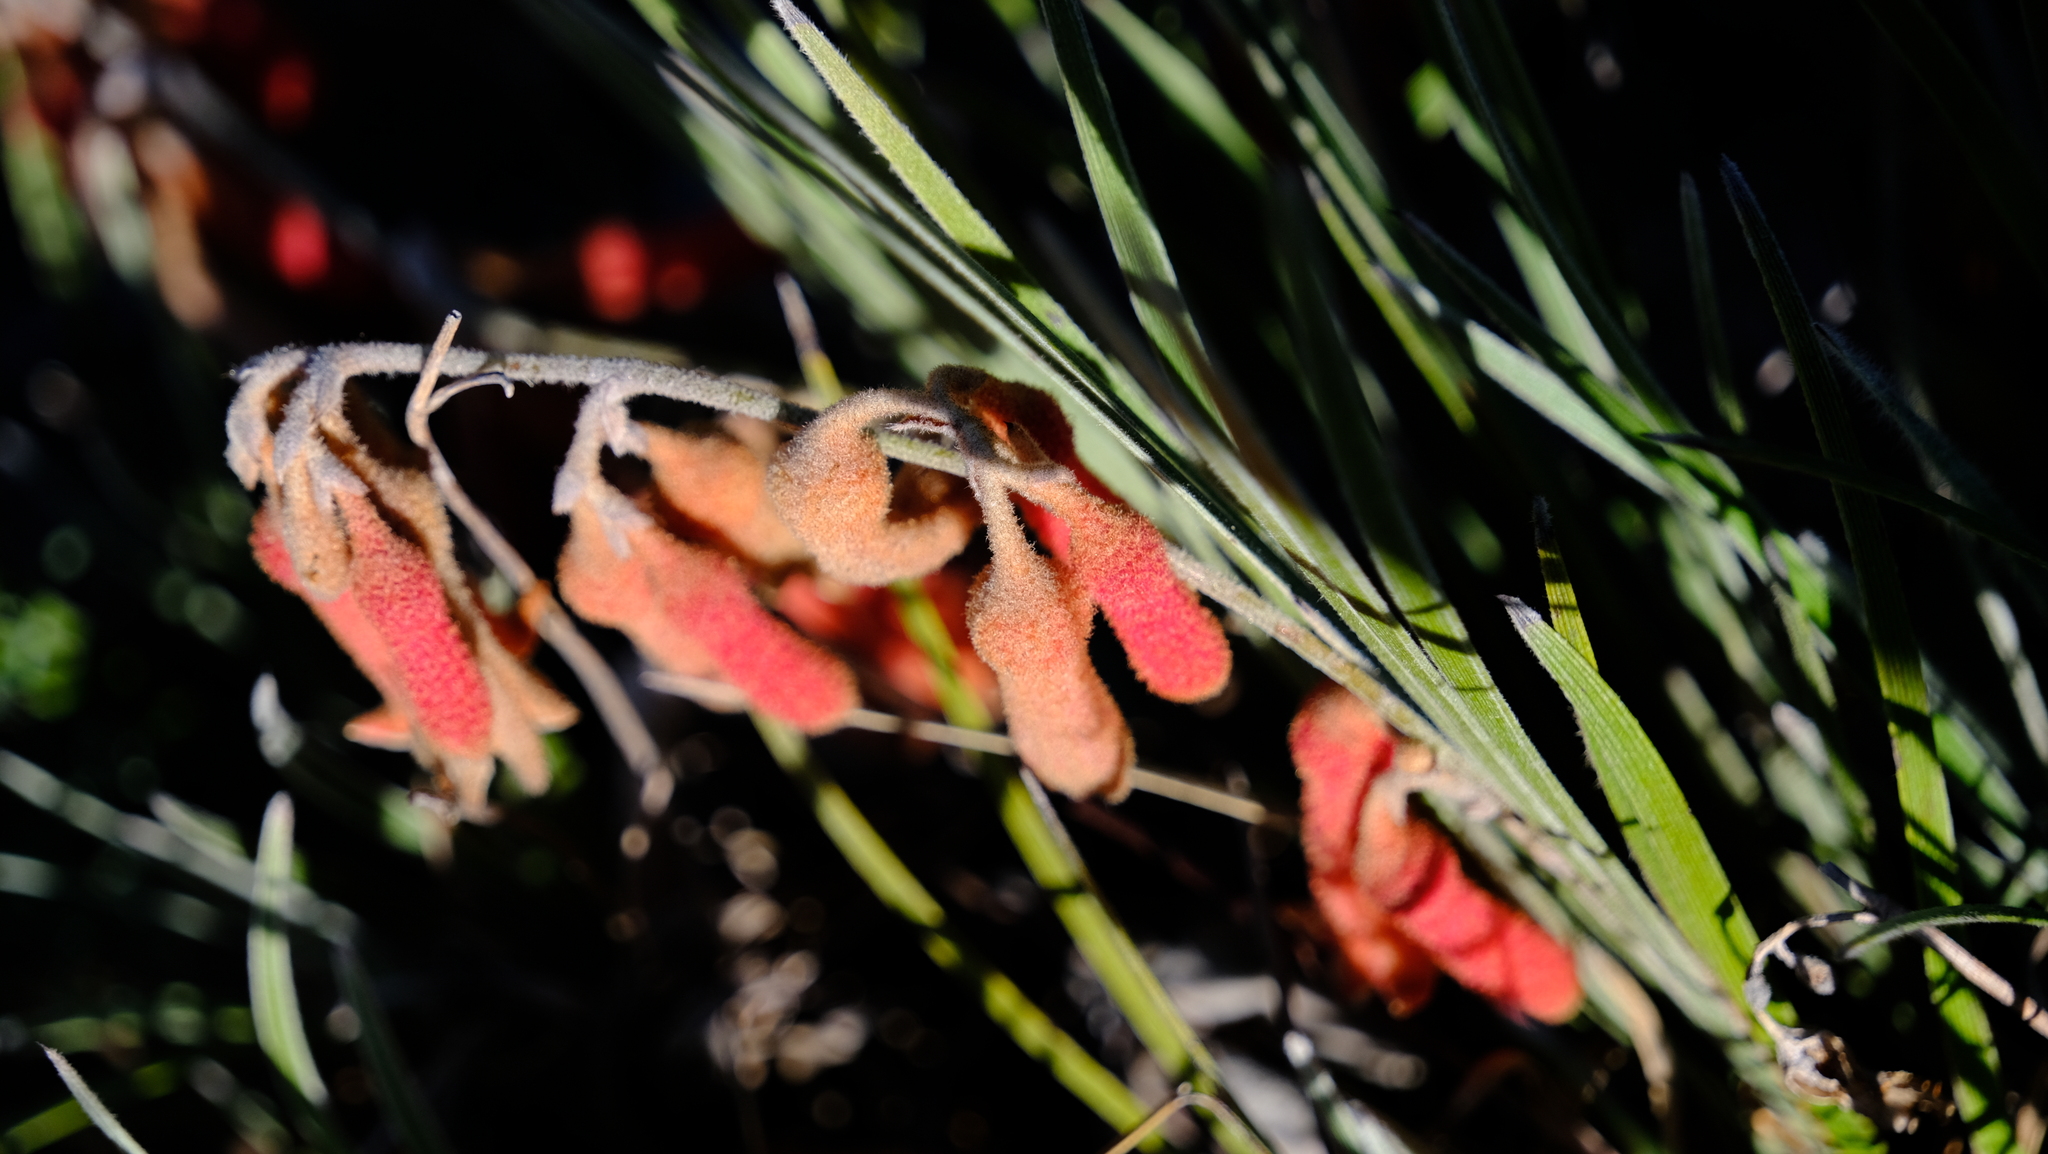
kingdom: Plantae
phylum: Tracheophyta
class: Liliopsida
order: Commelinales
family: Haemodoraceae
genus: Blancoa
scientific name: Blancoa canescens
